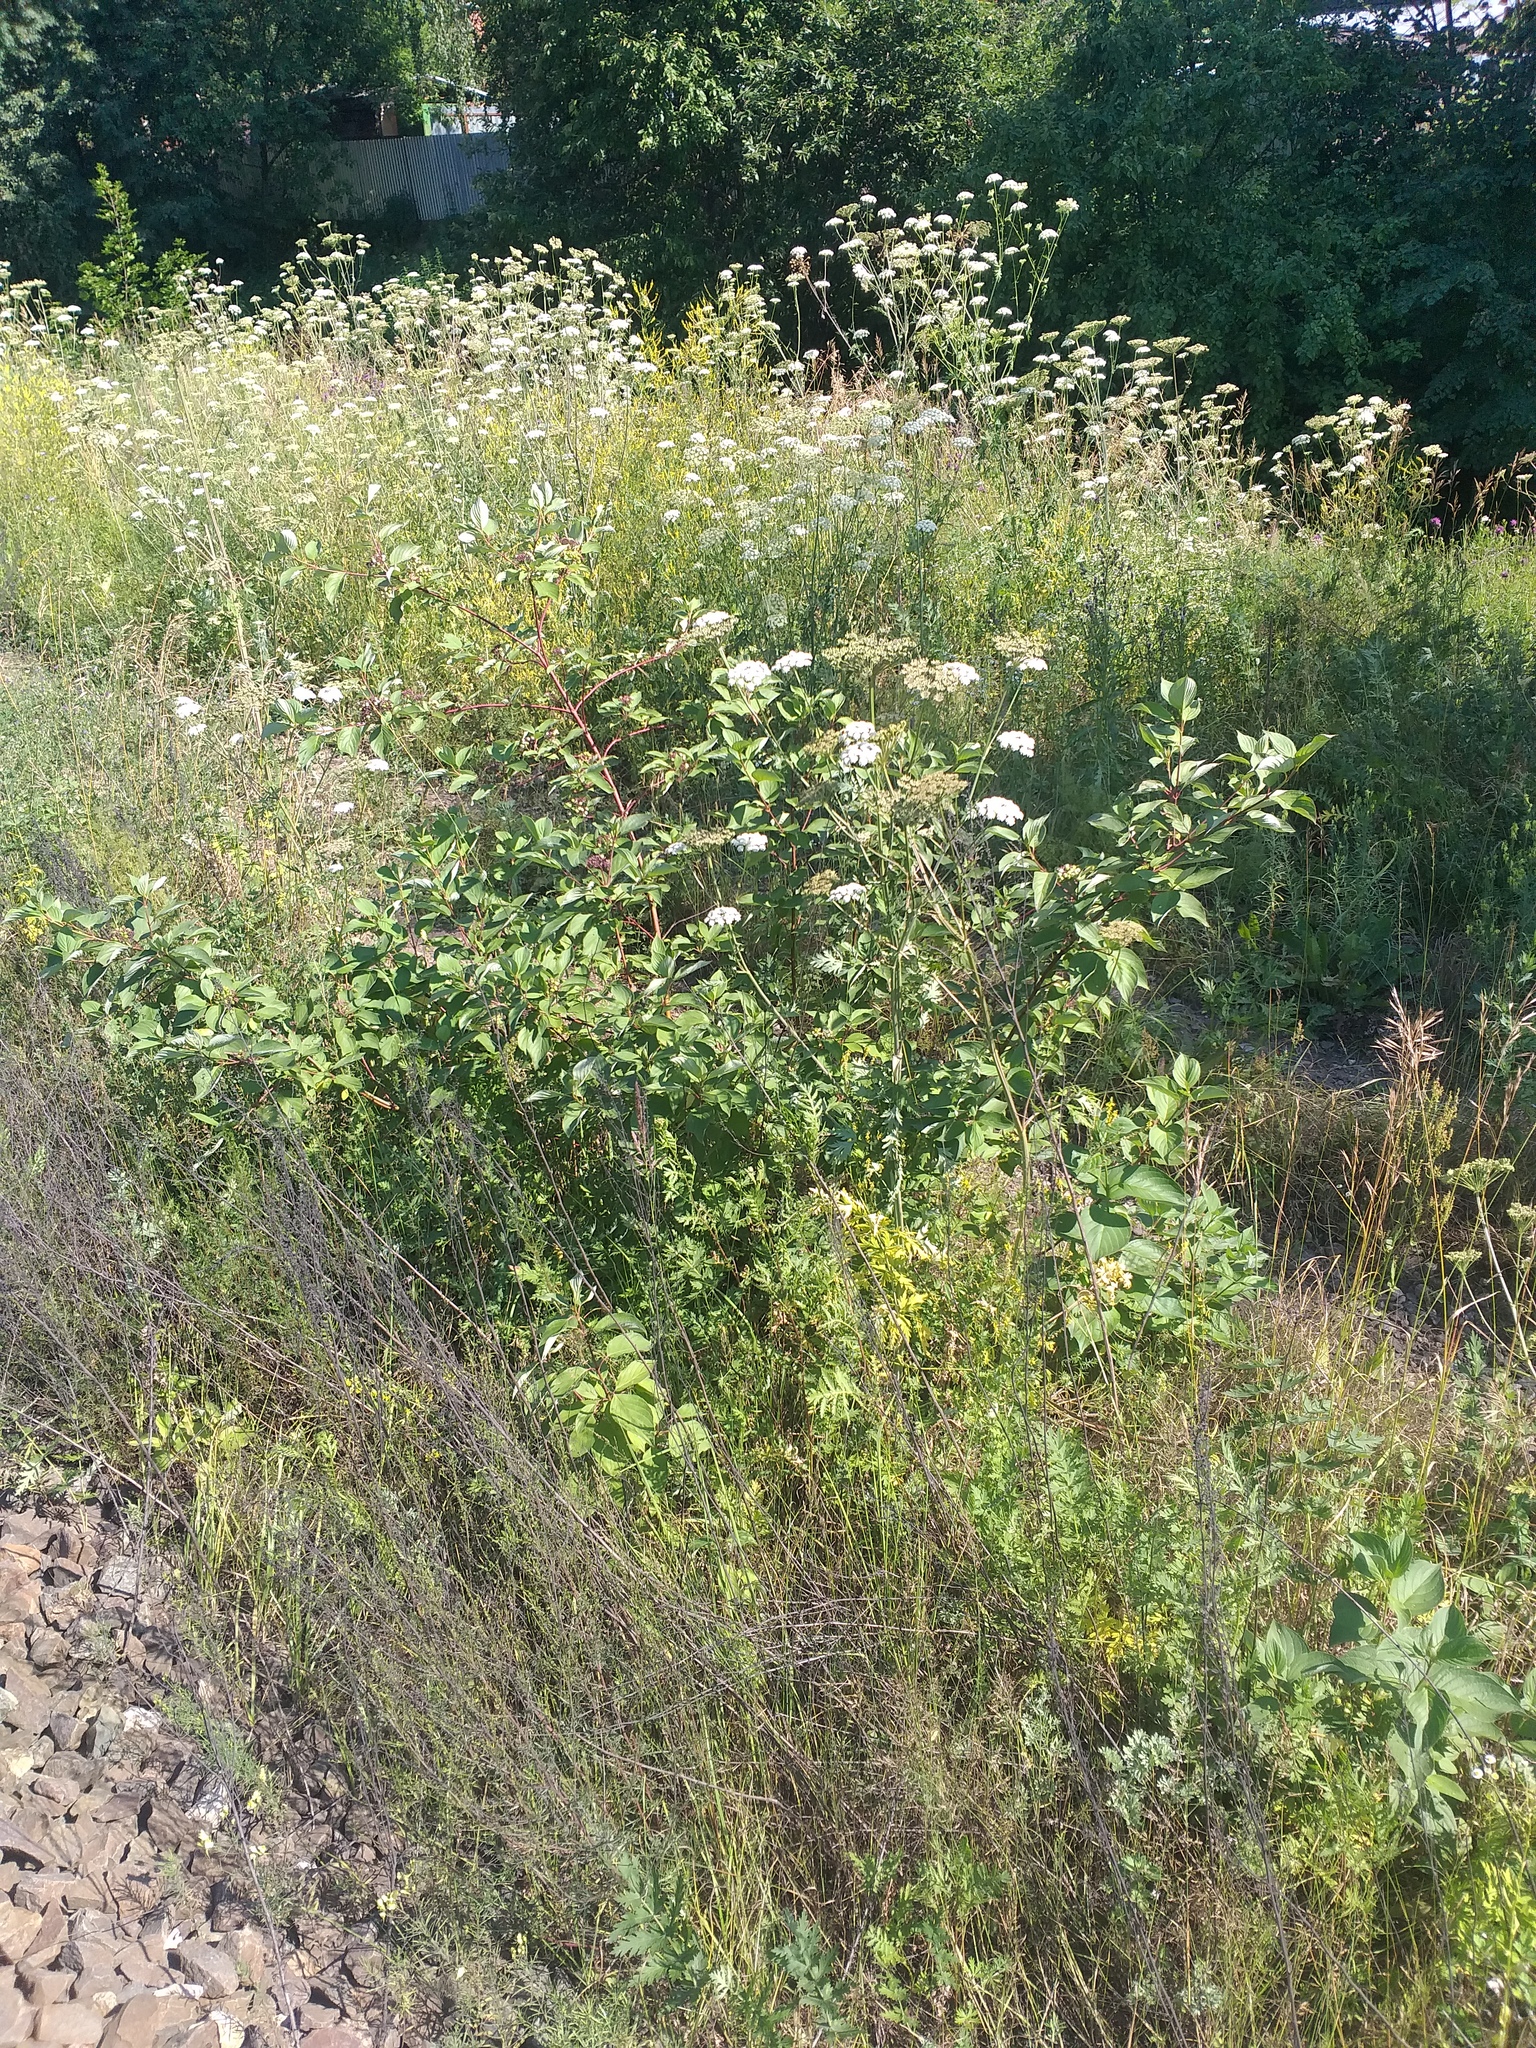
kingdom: Plantae
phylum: Tracheophyta
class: Magnoliopsida
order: Cornales
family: Cornaceae
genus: Cornus
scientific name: Cornus alba
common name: White dogwood
